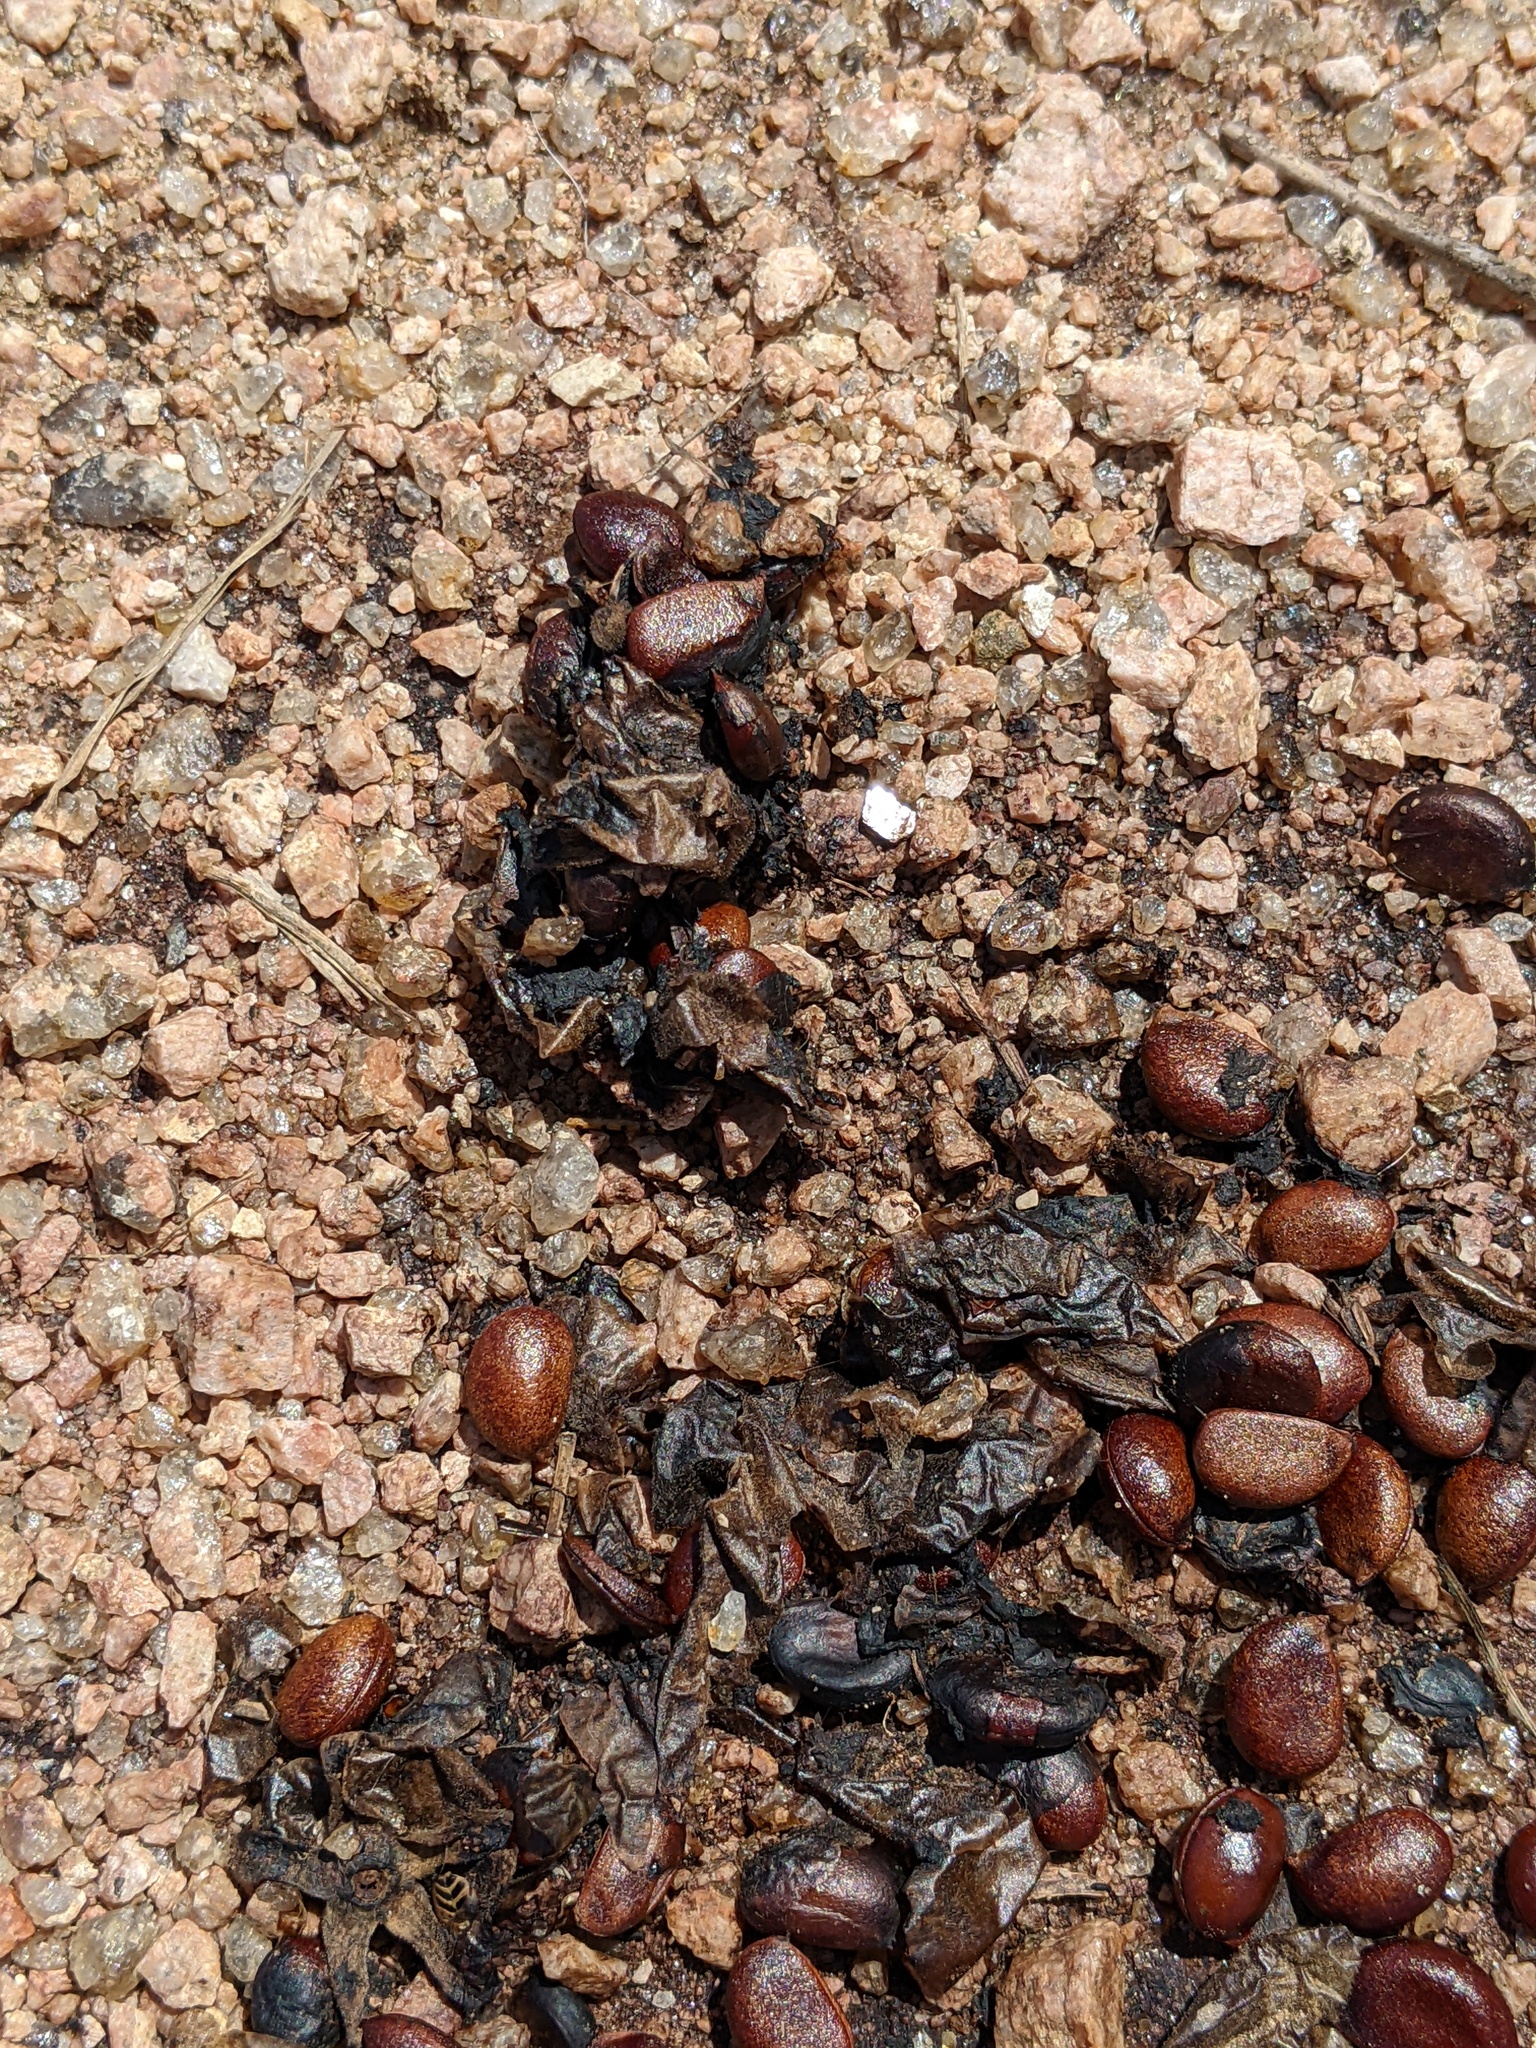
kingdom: Plantae
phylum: Tracheophyta
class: Magnoliopsida
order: Ericales
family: Ebenaceae
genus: Diospyros
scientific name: Diospyros texana
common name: Texas persimmon
